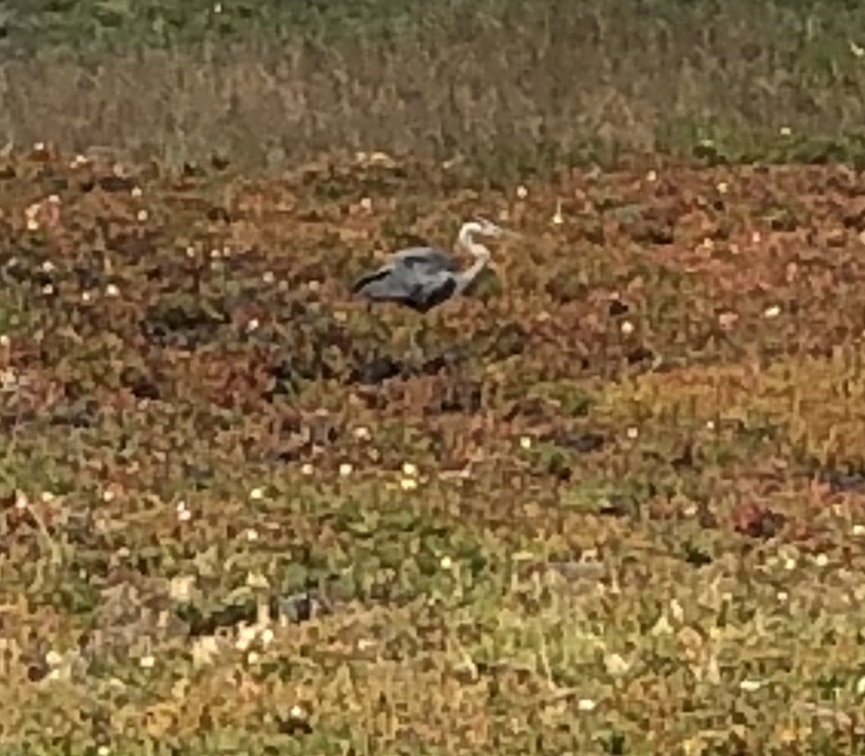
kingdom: Animalia
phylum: Chordata
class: Aves
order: Pelecaniformes
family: Ardeidae
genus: Ardea
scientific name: Ardea herodias
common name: Great blue heron
